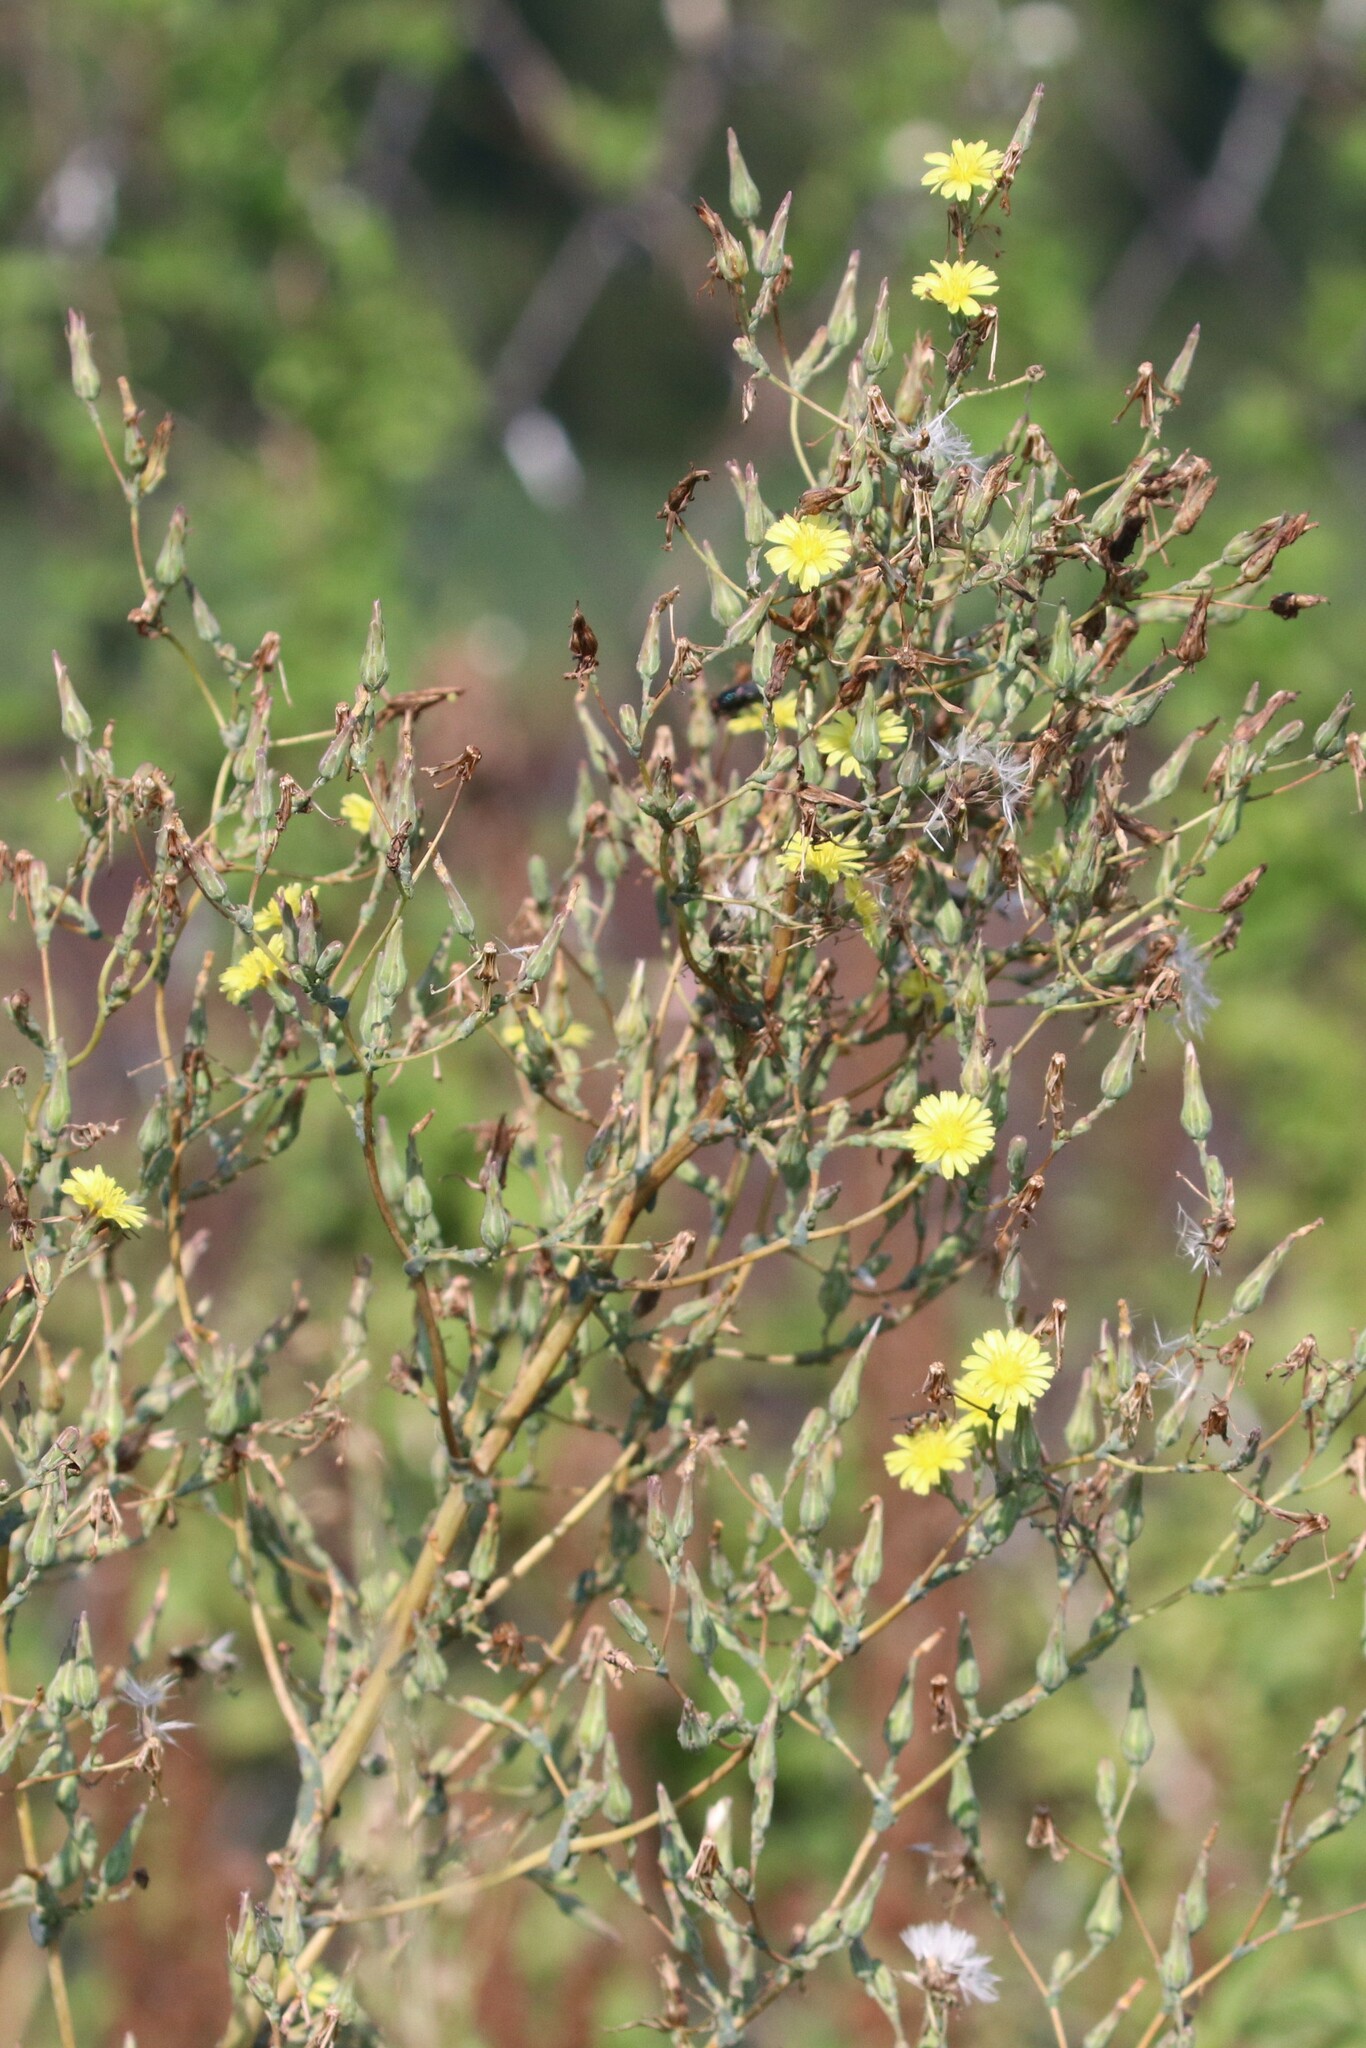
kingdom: Plantae
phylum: Tracheophyta
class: Magnoliopsida
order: Asterales
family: Asteraceae
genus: Lactuca
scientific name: Lactuca serriola
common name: Prickly lettuce
